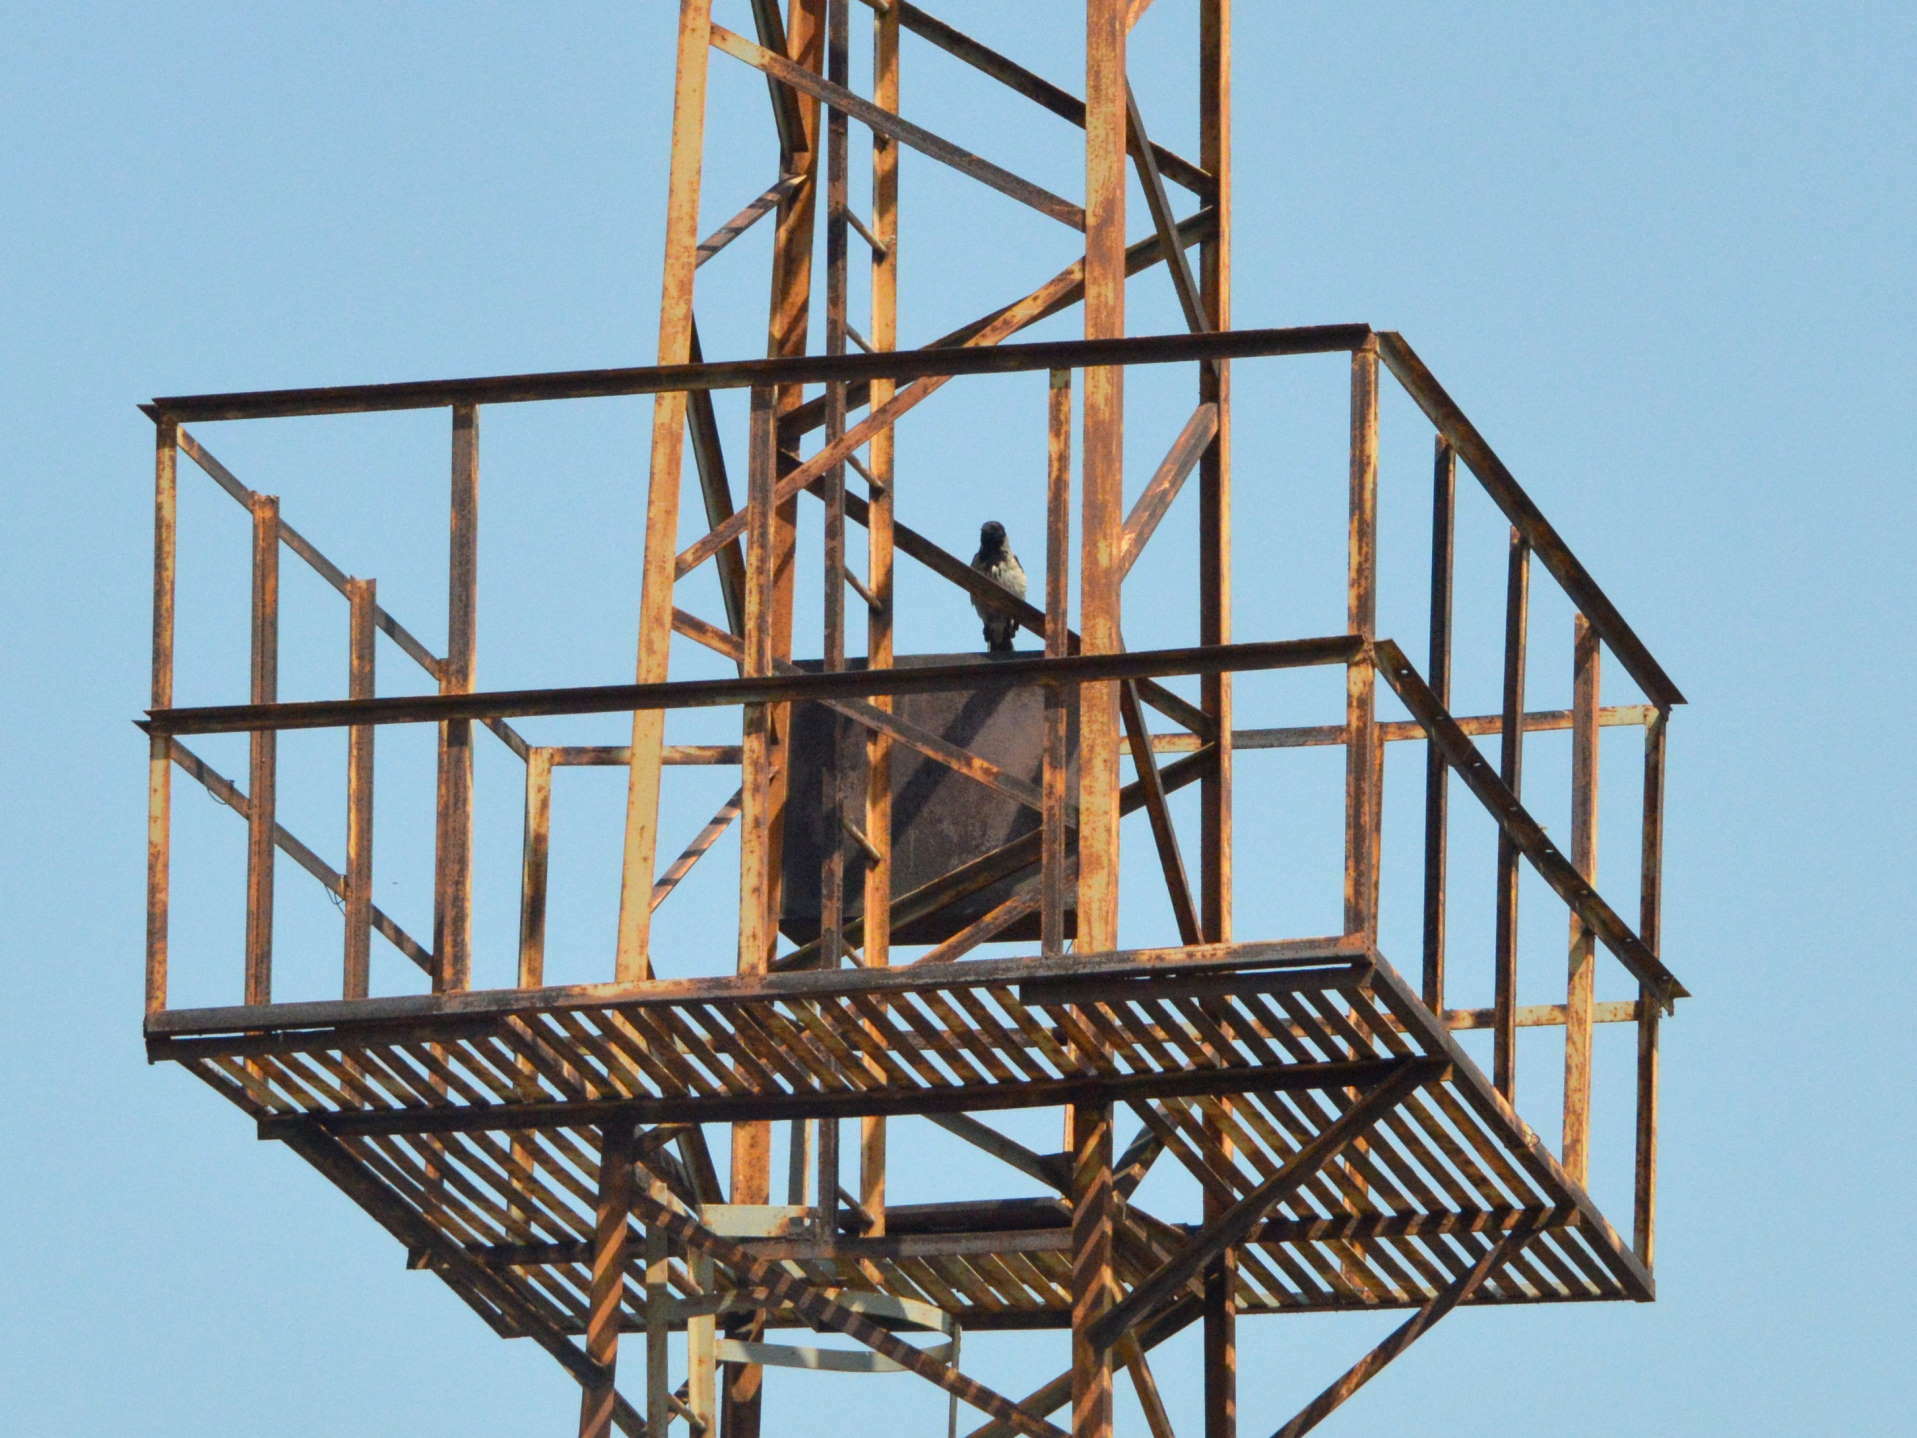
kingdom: Animalia
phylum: Chordata
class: Aves
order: Passeriformes
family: Corvidae
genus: Corvus
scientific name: Corvus cornix
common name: Hooded crow
